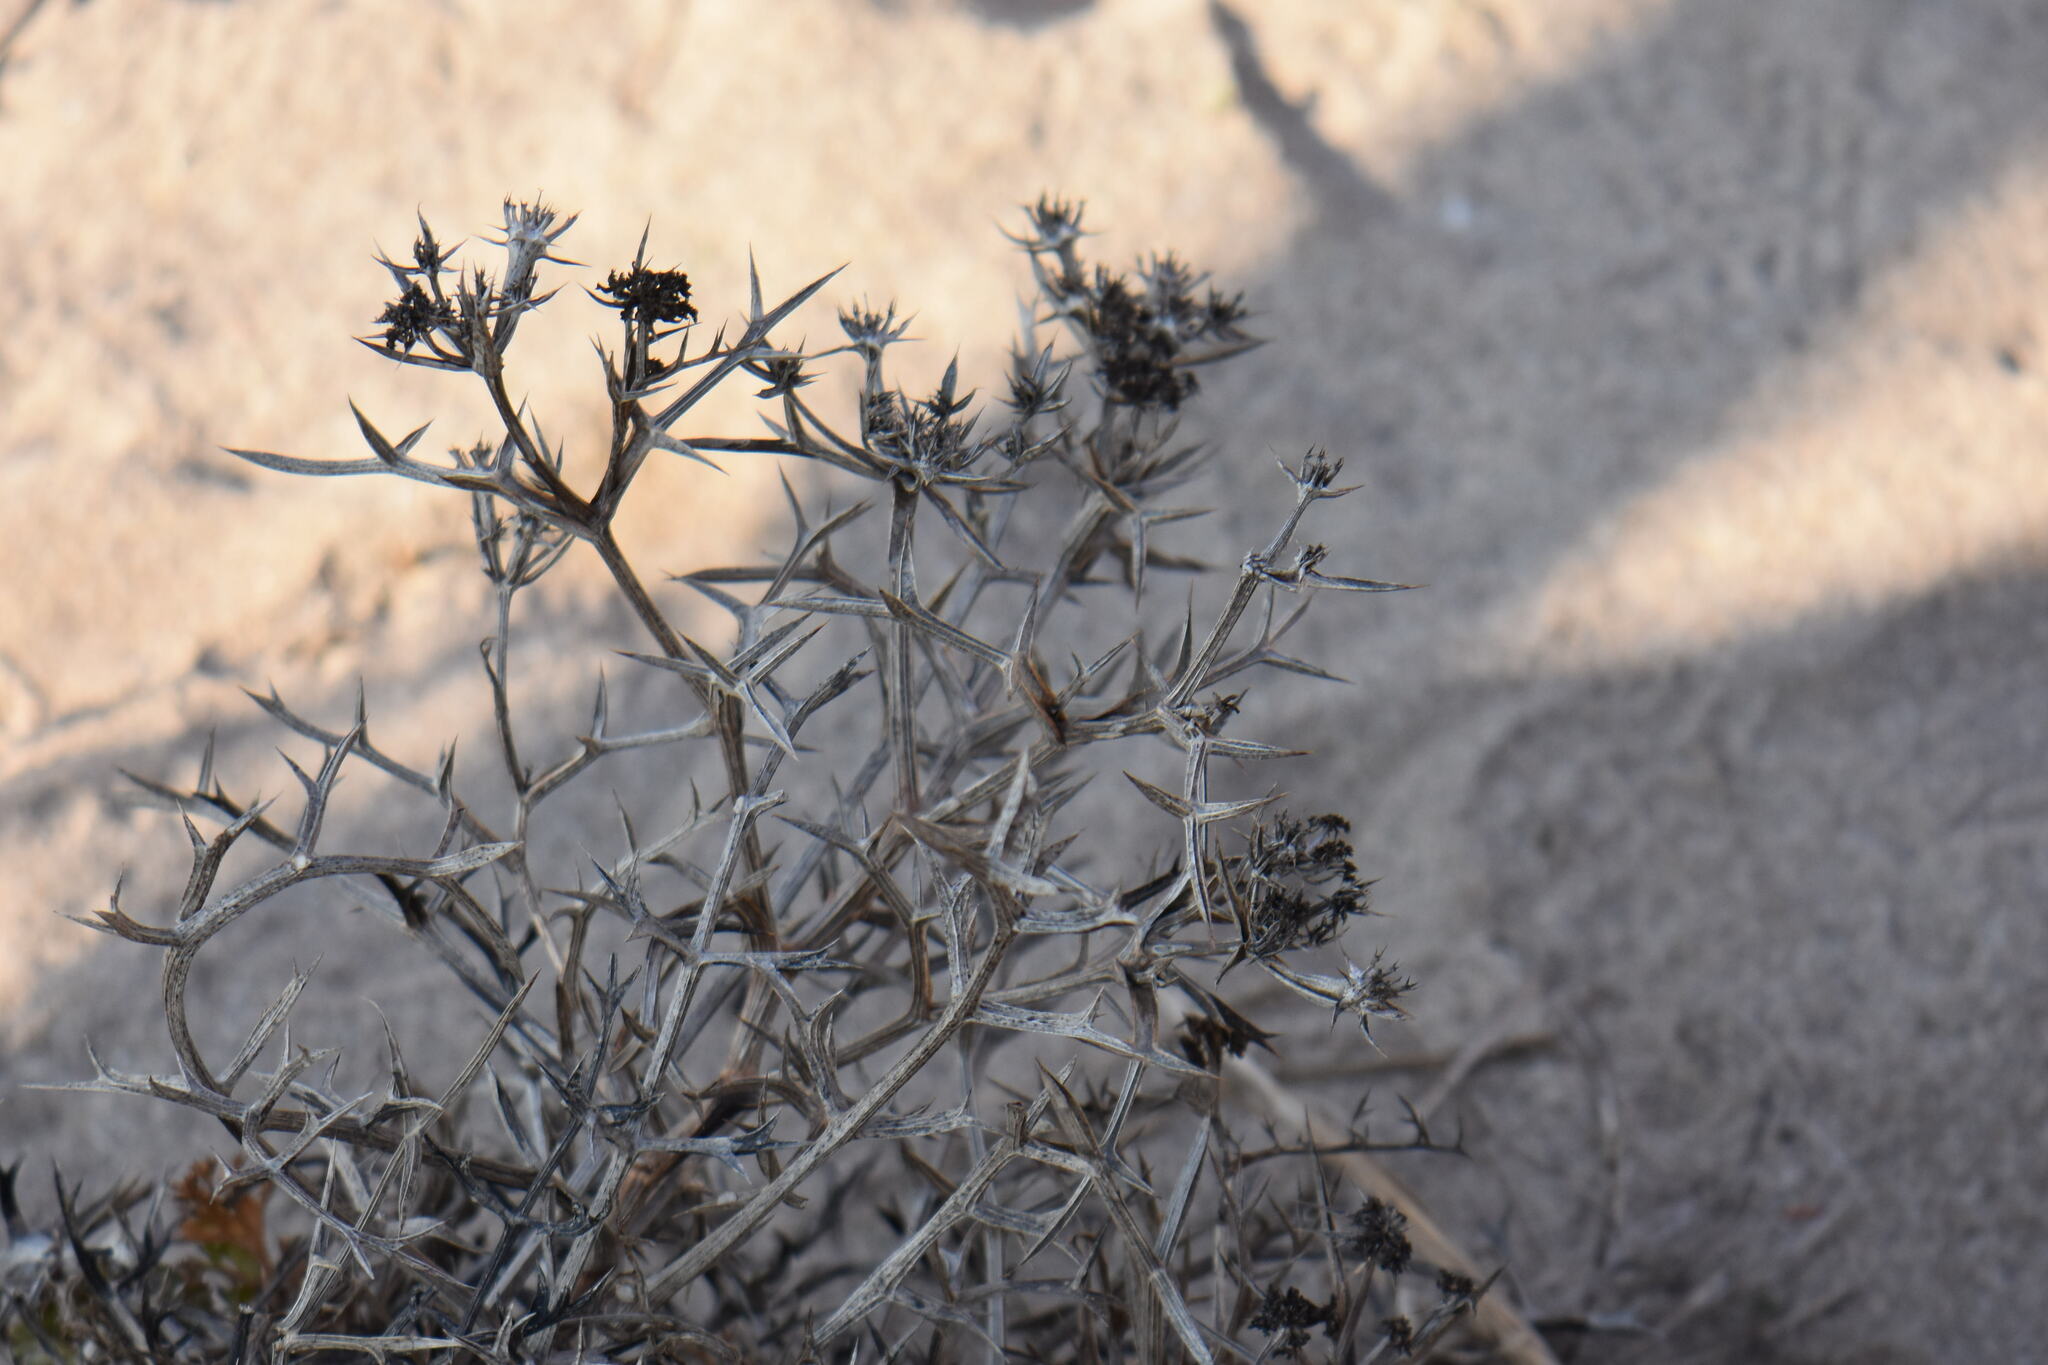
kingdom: Plantae
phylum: Tracheophyta
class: Magnoliopsida
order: Apiales
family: Apiaceae
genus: Echinophora
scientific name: Echinophora spinosa
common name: Prickly samphire
